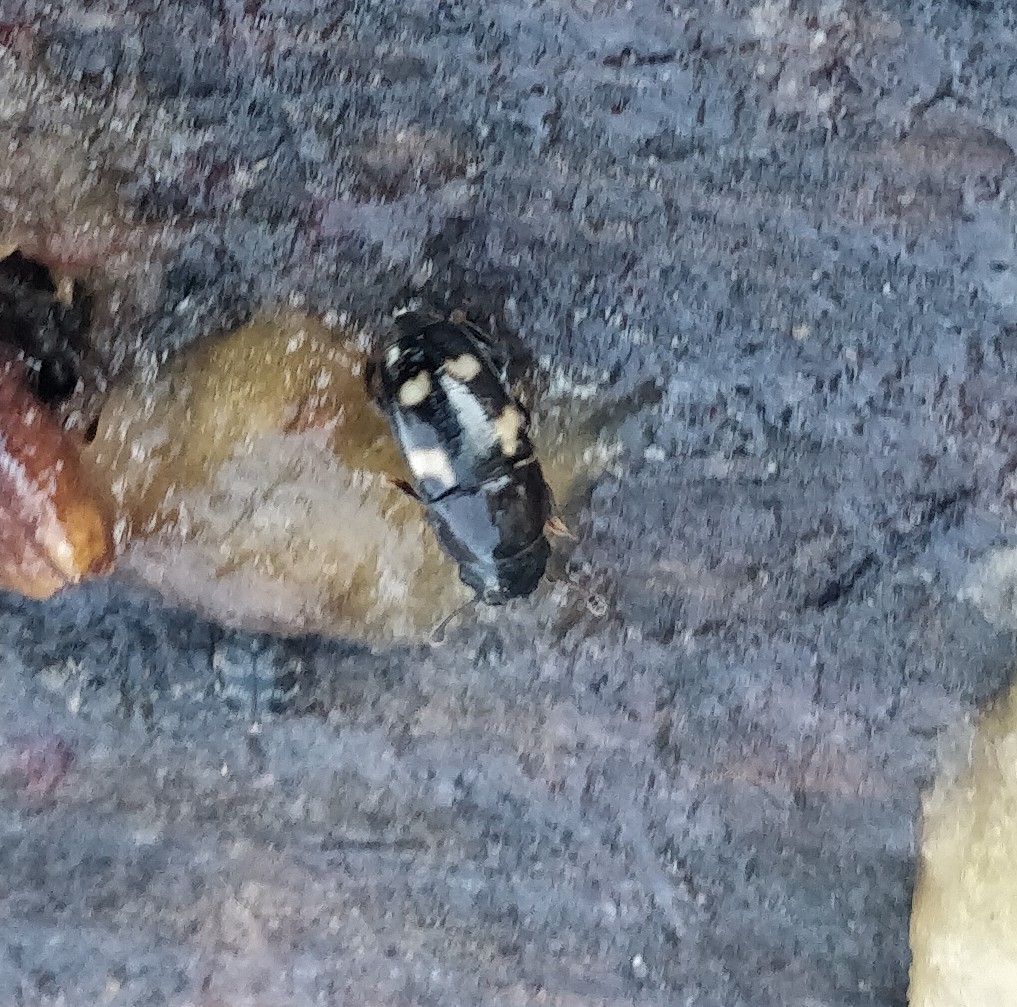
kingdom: Animalia
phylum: Arthropoda
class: Insecta
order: Coleoptera
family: Nitidulidae
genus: Glischrochilus
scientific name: Glischrochilus quadrisignatus
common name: Picnic beetle
